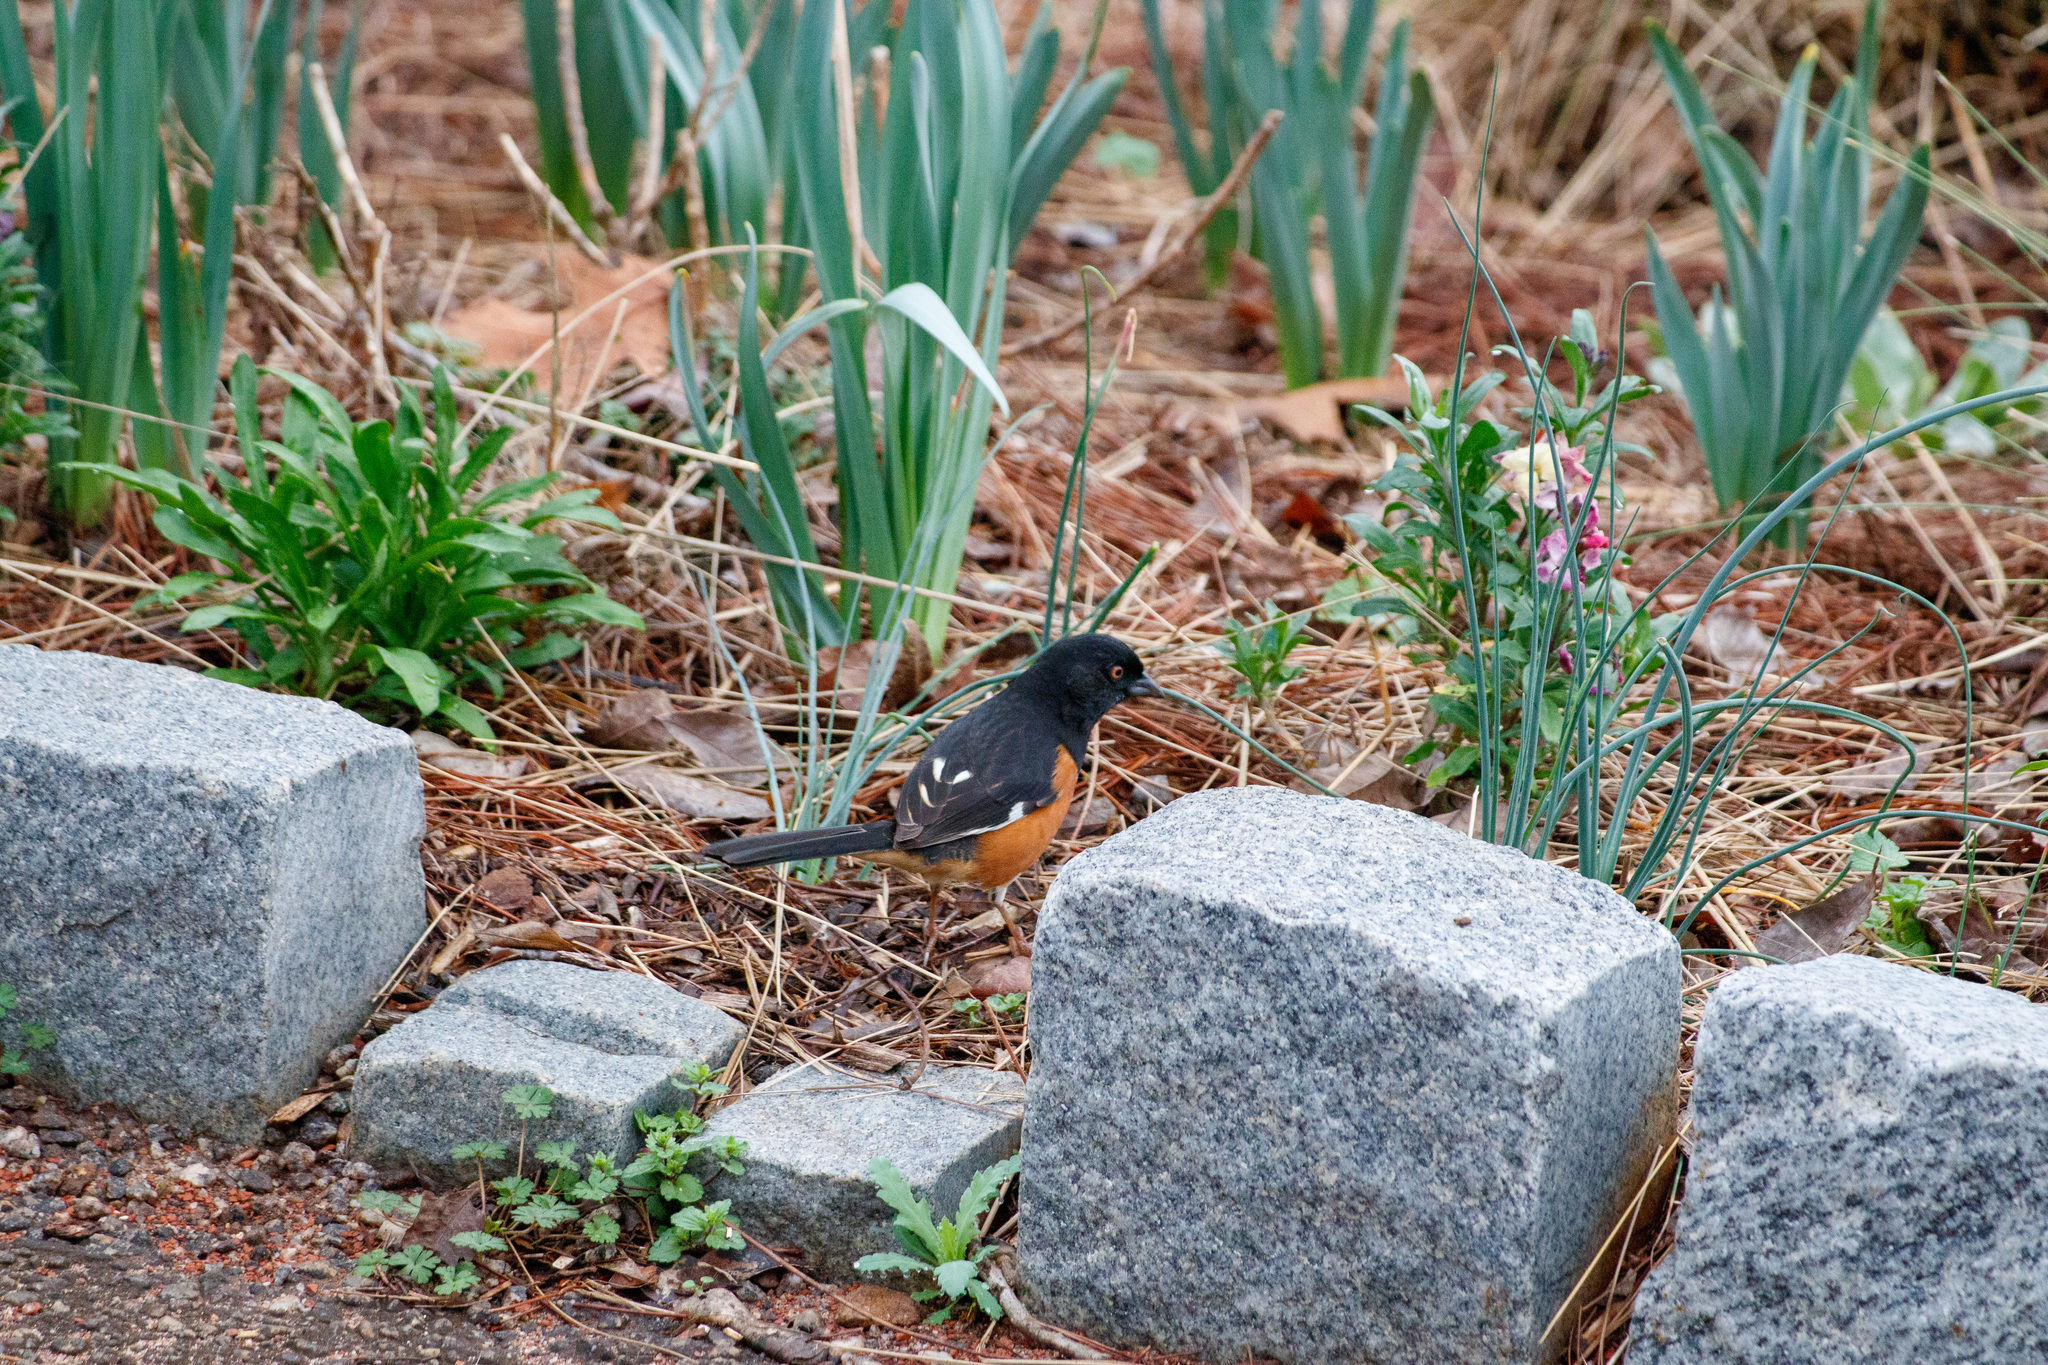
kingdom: Animalia
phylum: Chordata
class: Aves
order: Passeriformes
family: Passerellidae
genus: Pipilo
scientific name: Pipilo erythrophthalmus
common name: Eastern towhee
